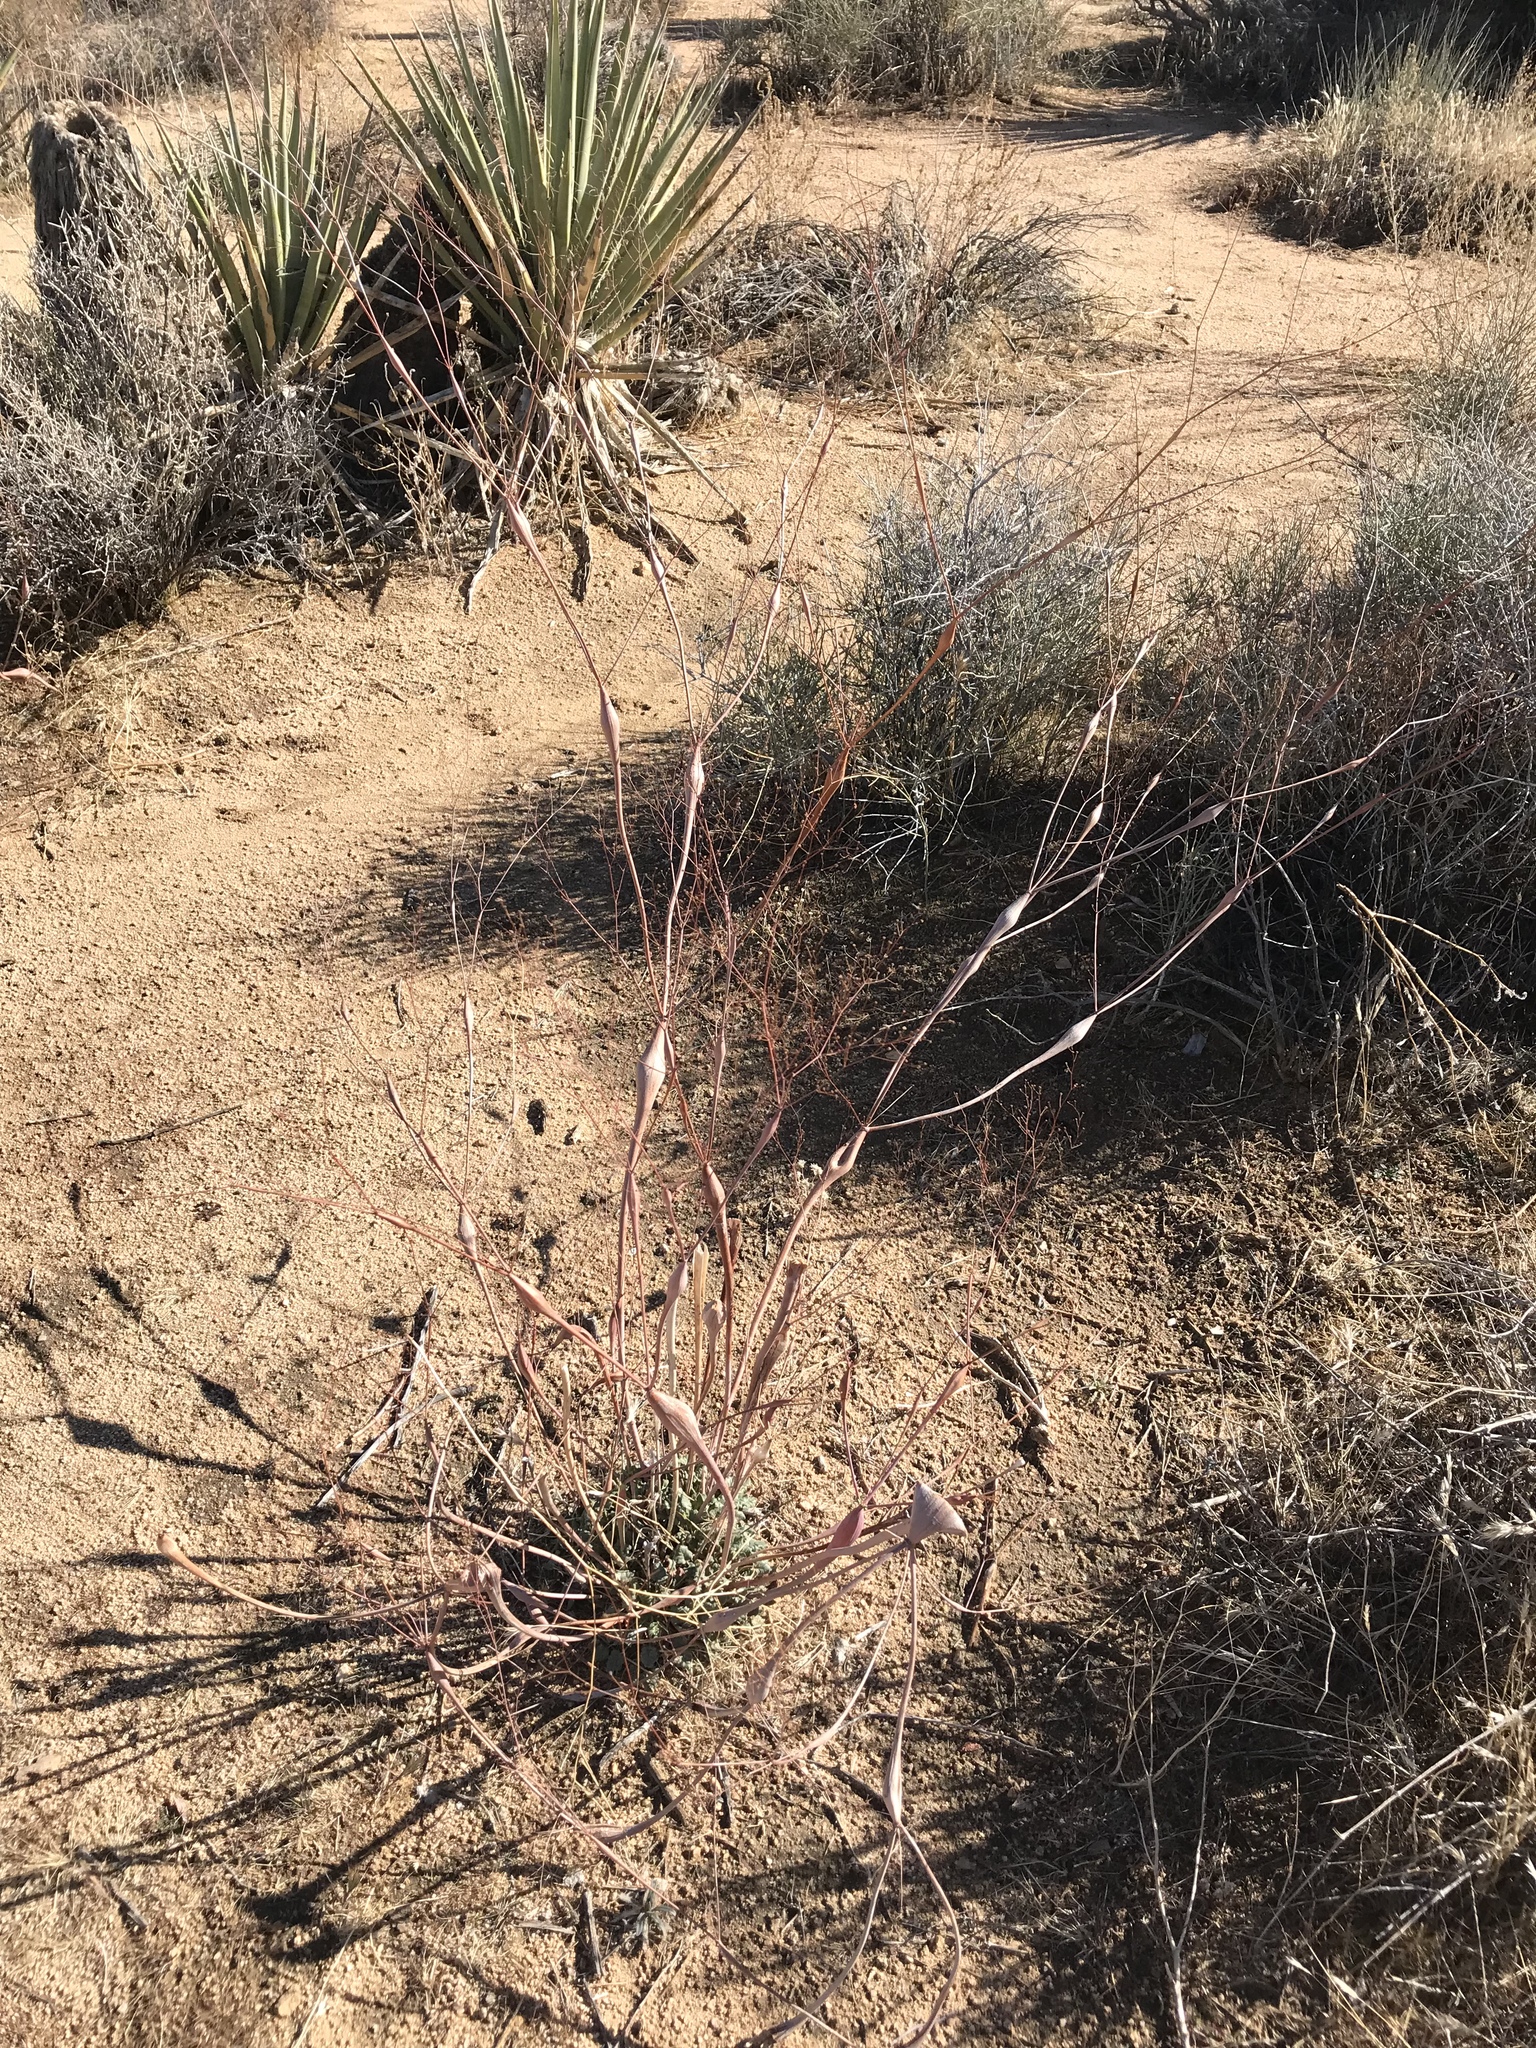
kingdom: Plantae
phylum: Tracheophyta
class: Magnoliopsida
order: Caryophyllales
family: Polygonaceae
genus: Eriogonum
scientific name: Eriogonum inflatum
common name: Desert trumpet
